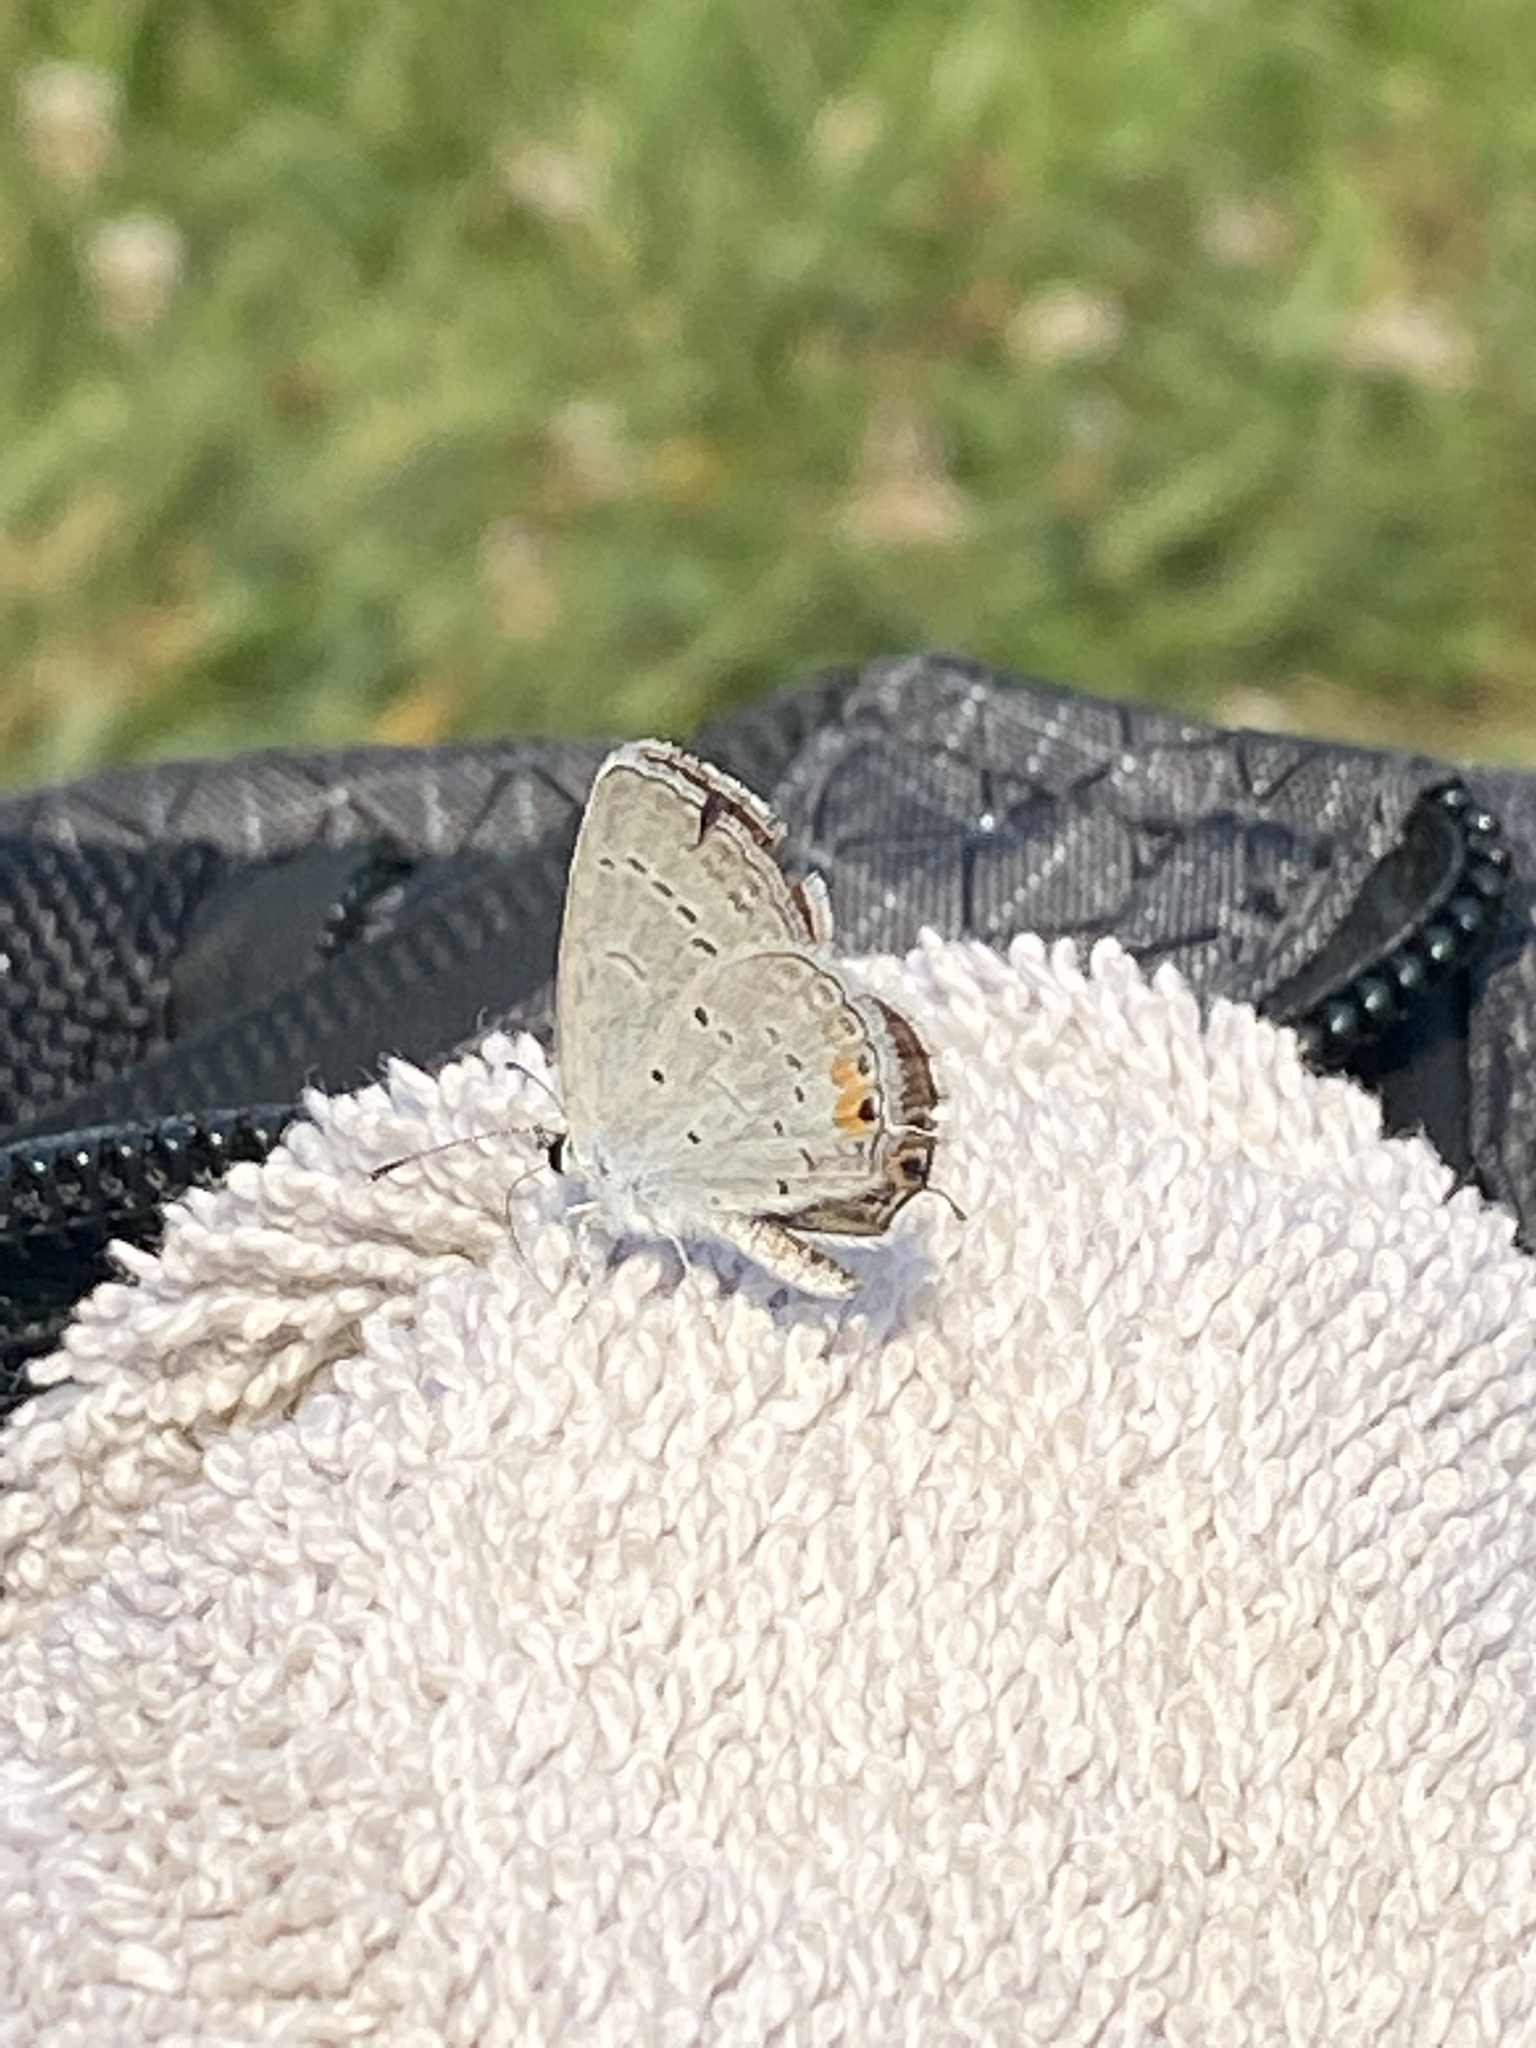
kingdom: Animalia
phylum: Arthropoda
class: Insecta
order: Lepidoptera
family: Lycaenidae
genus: Elkalyce
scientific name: Elkalyce comyntas
